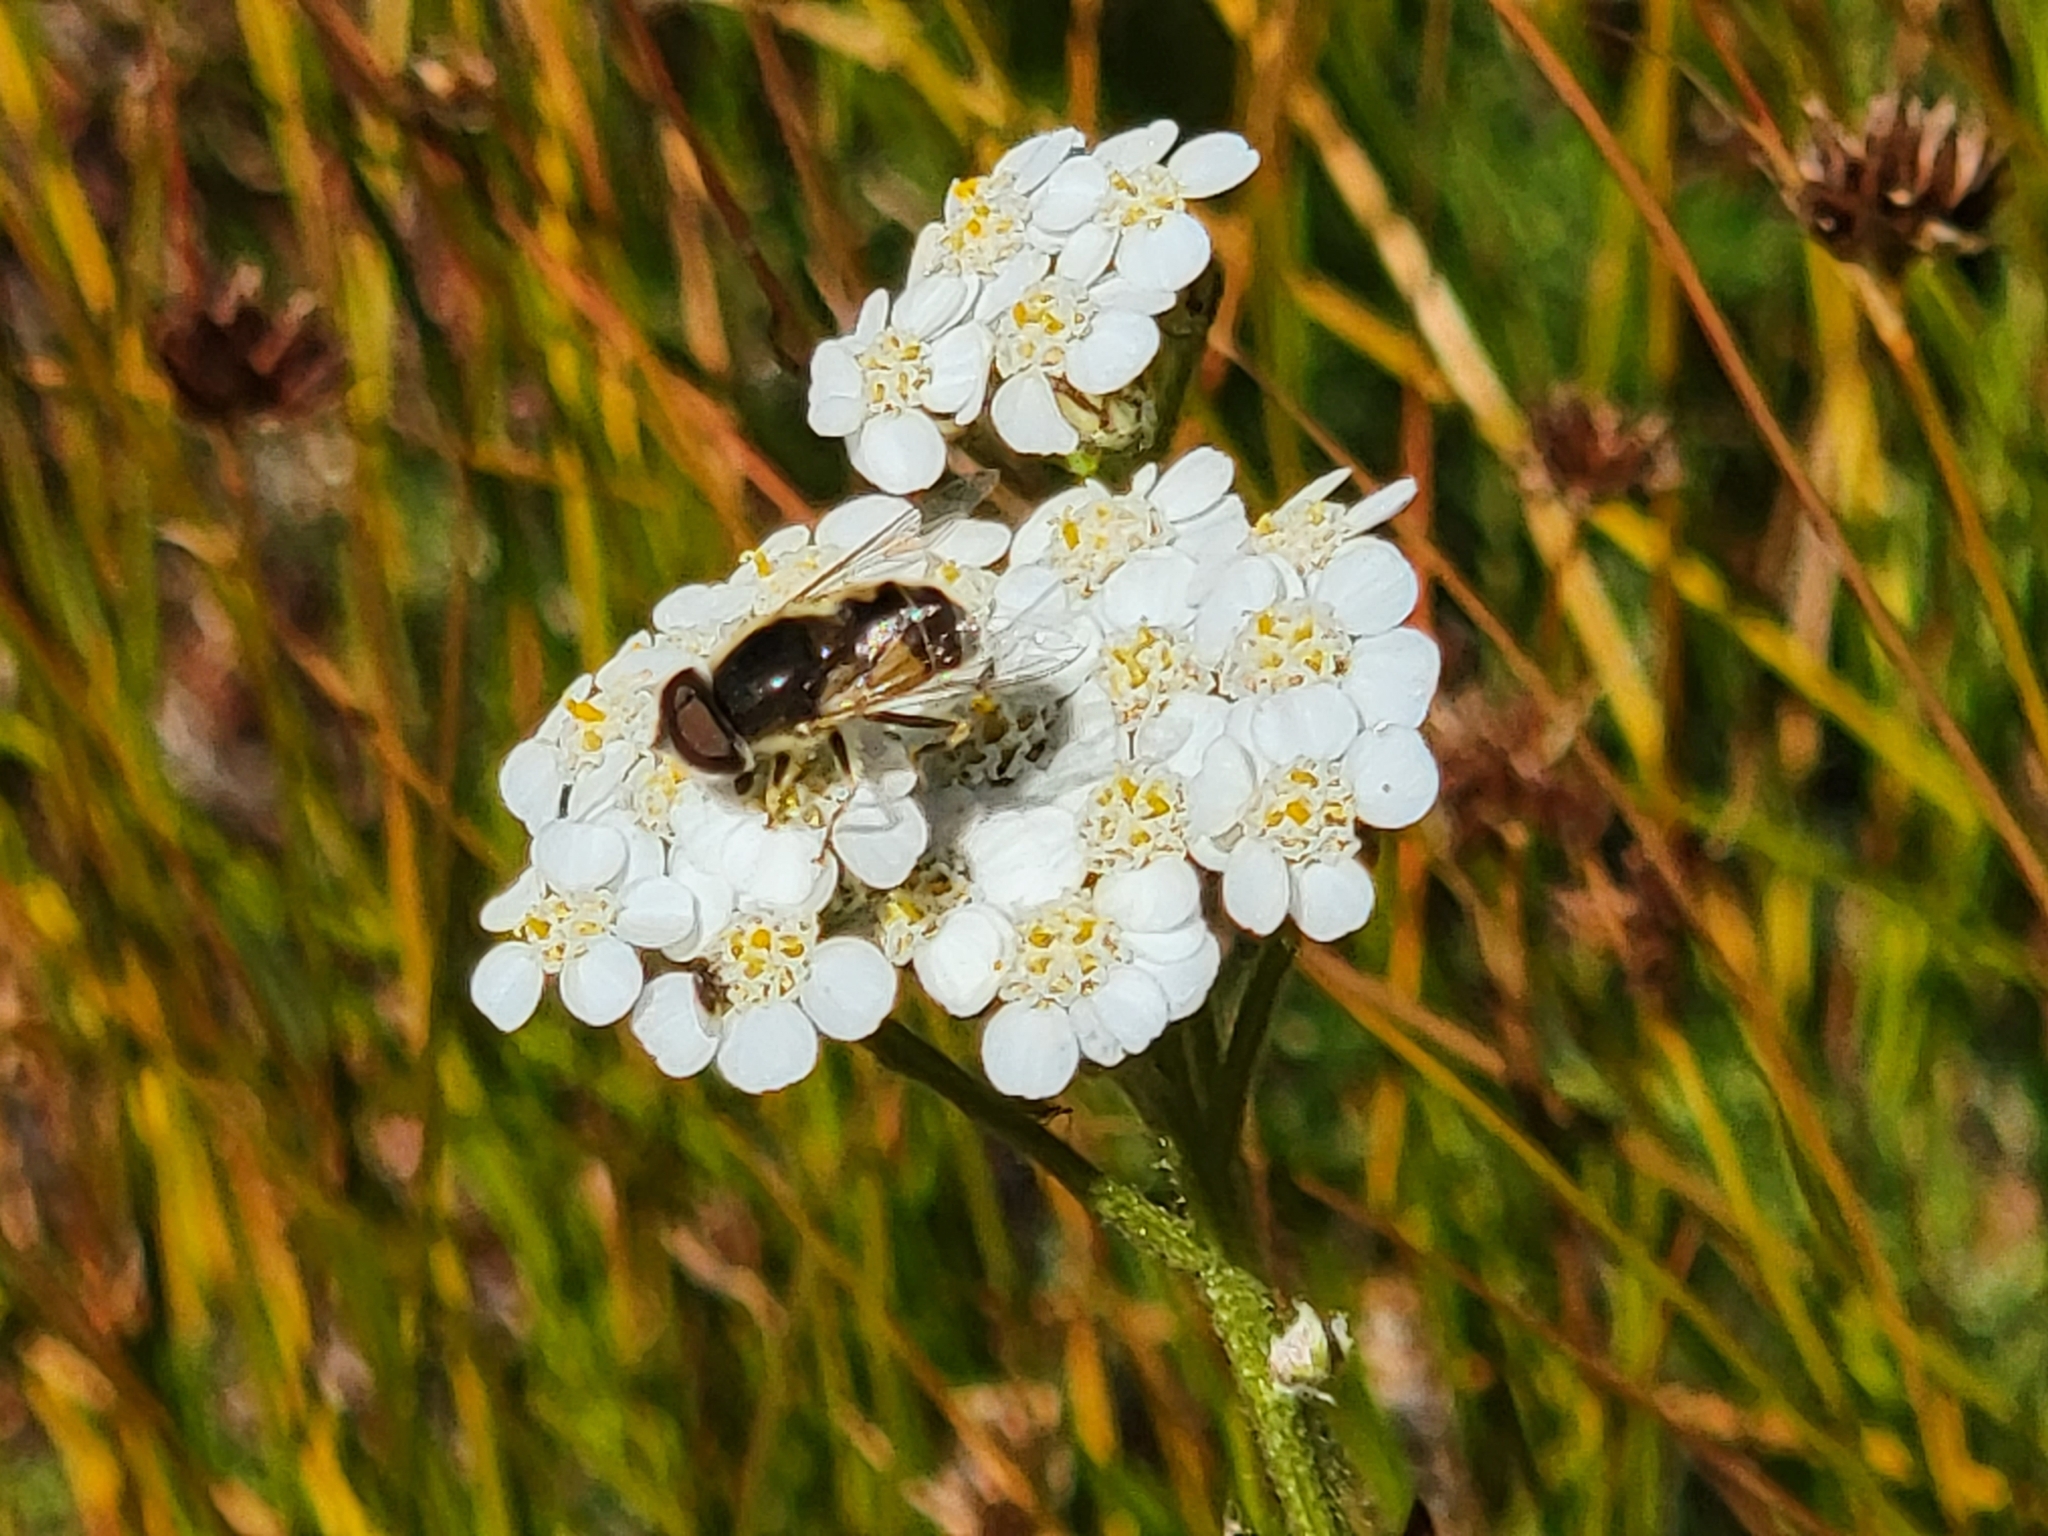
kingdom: Animalia
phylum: Arthropoda
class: Insecta
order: Diptera
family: Syrphidae
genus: Eristalis
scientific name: Eristalis hirta
